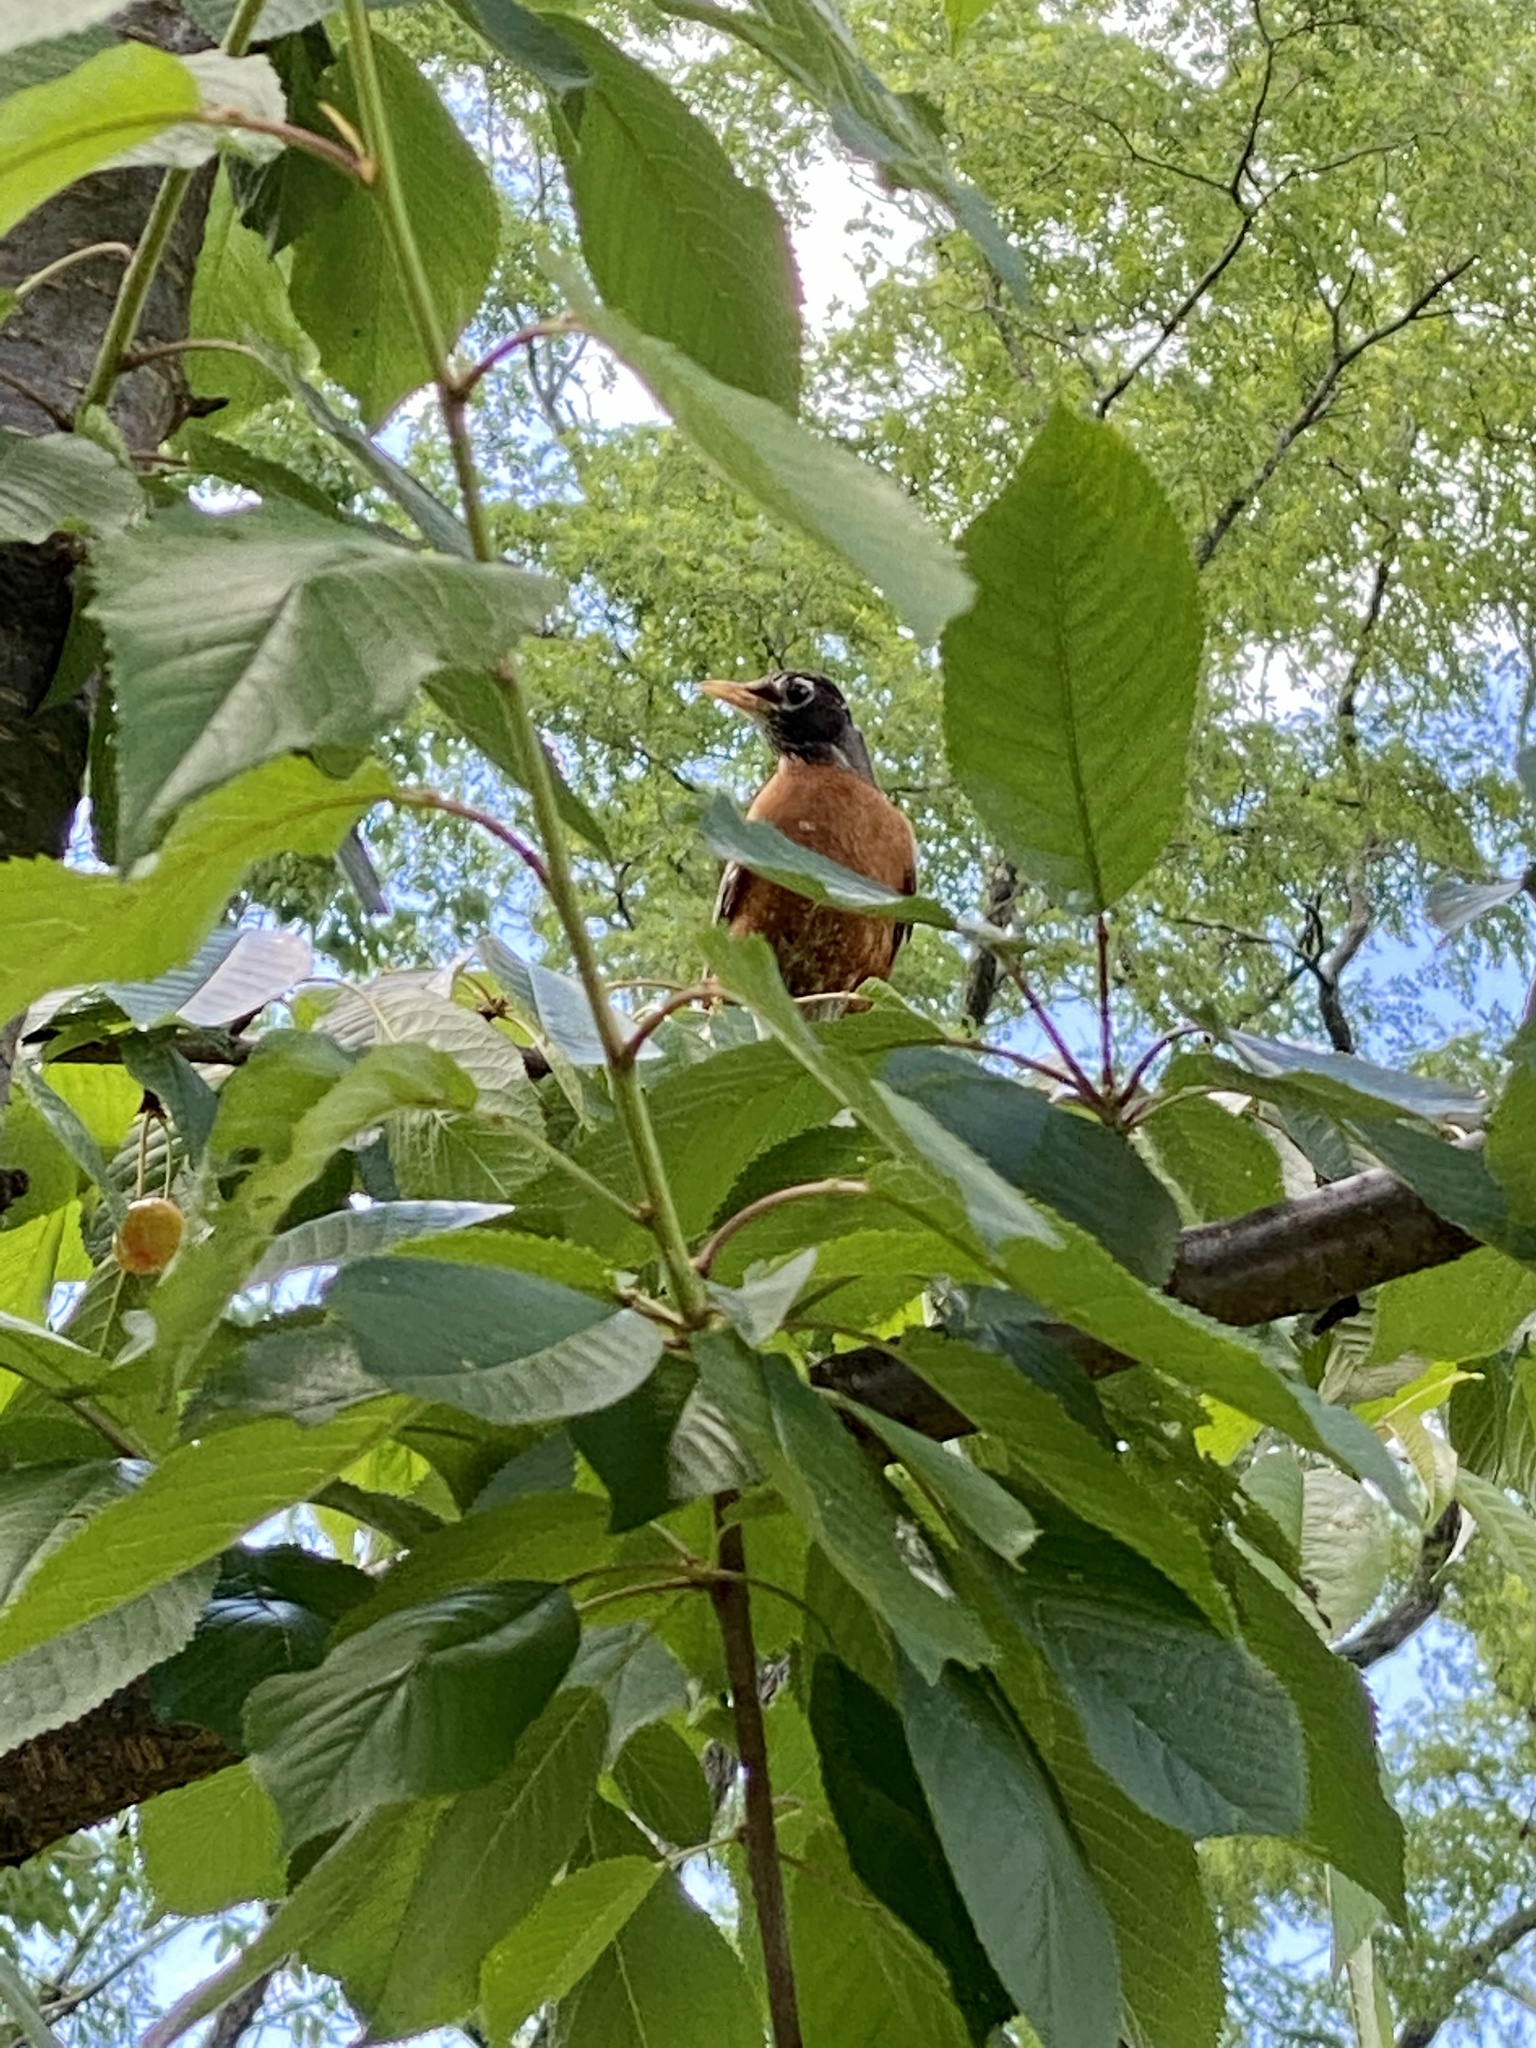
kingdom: Animalia
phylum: Chordata
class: Aves
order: Passeriformes
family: Turdidae
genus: Turdus
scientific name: Turdus migratorius
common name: American robin
